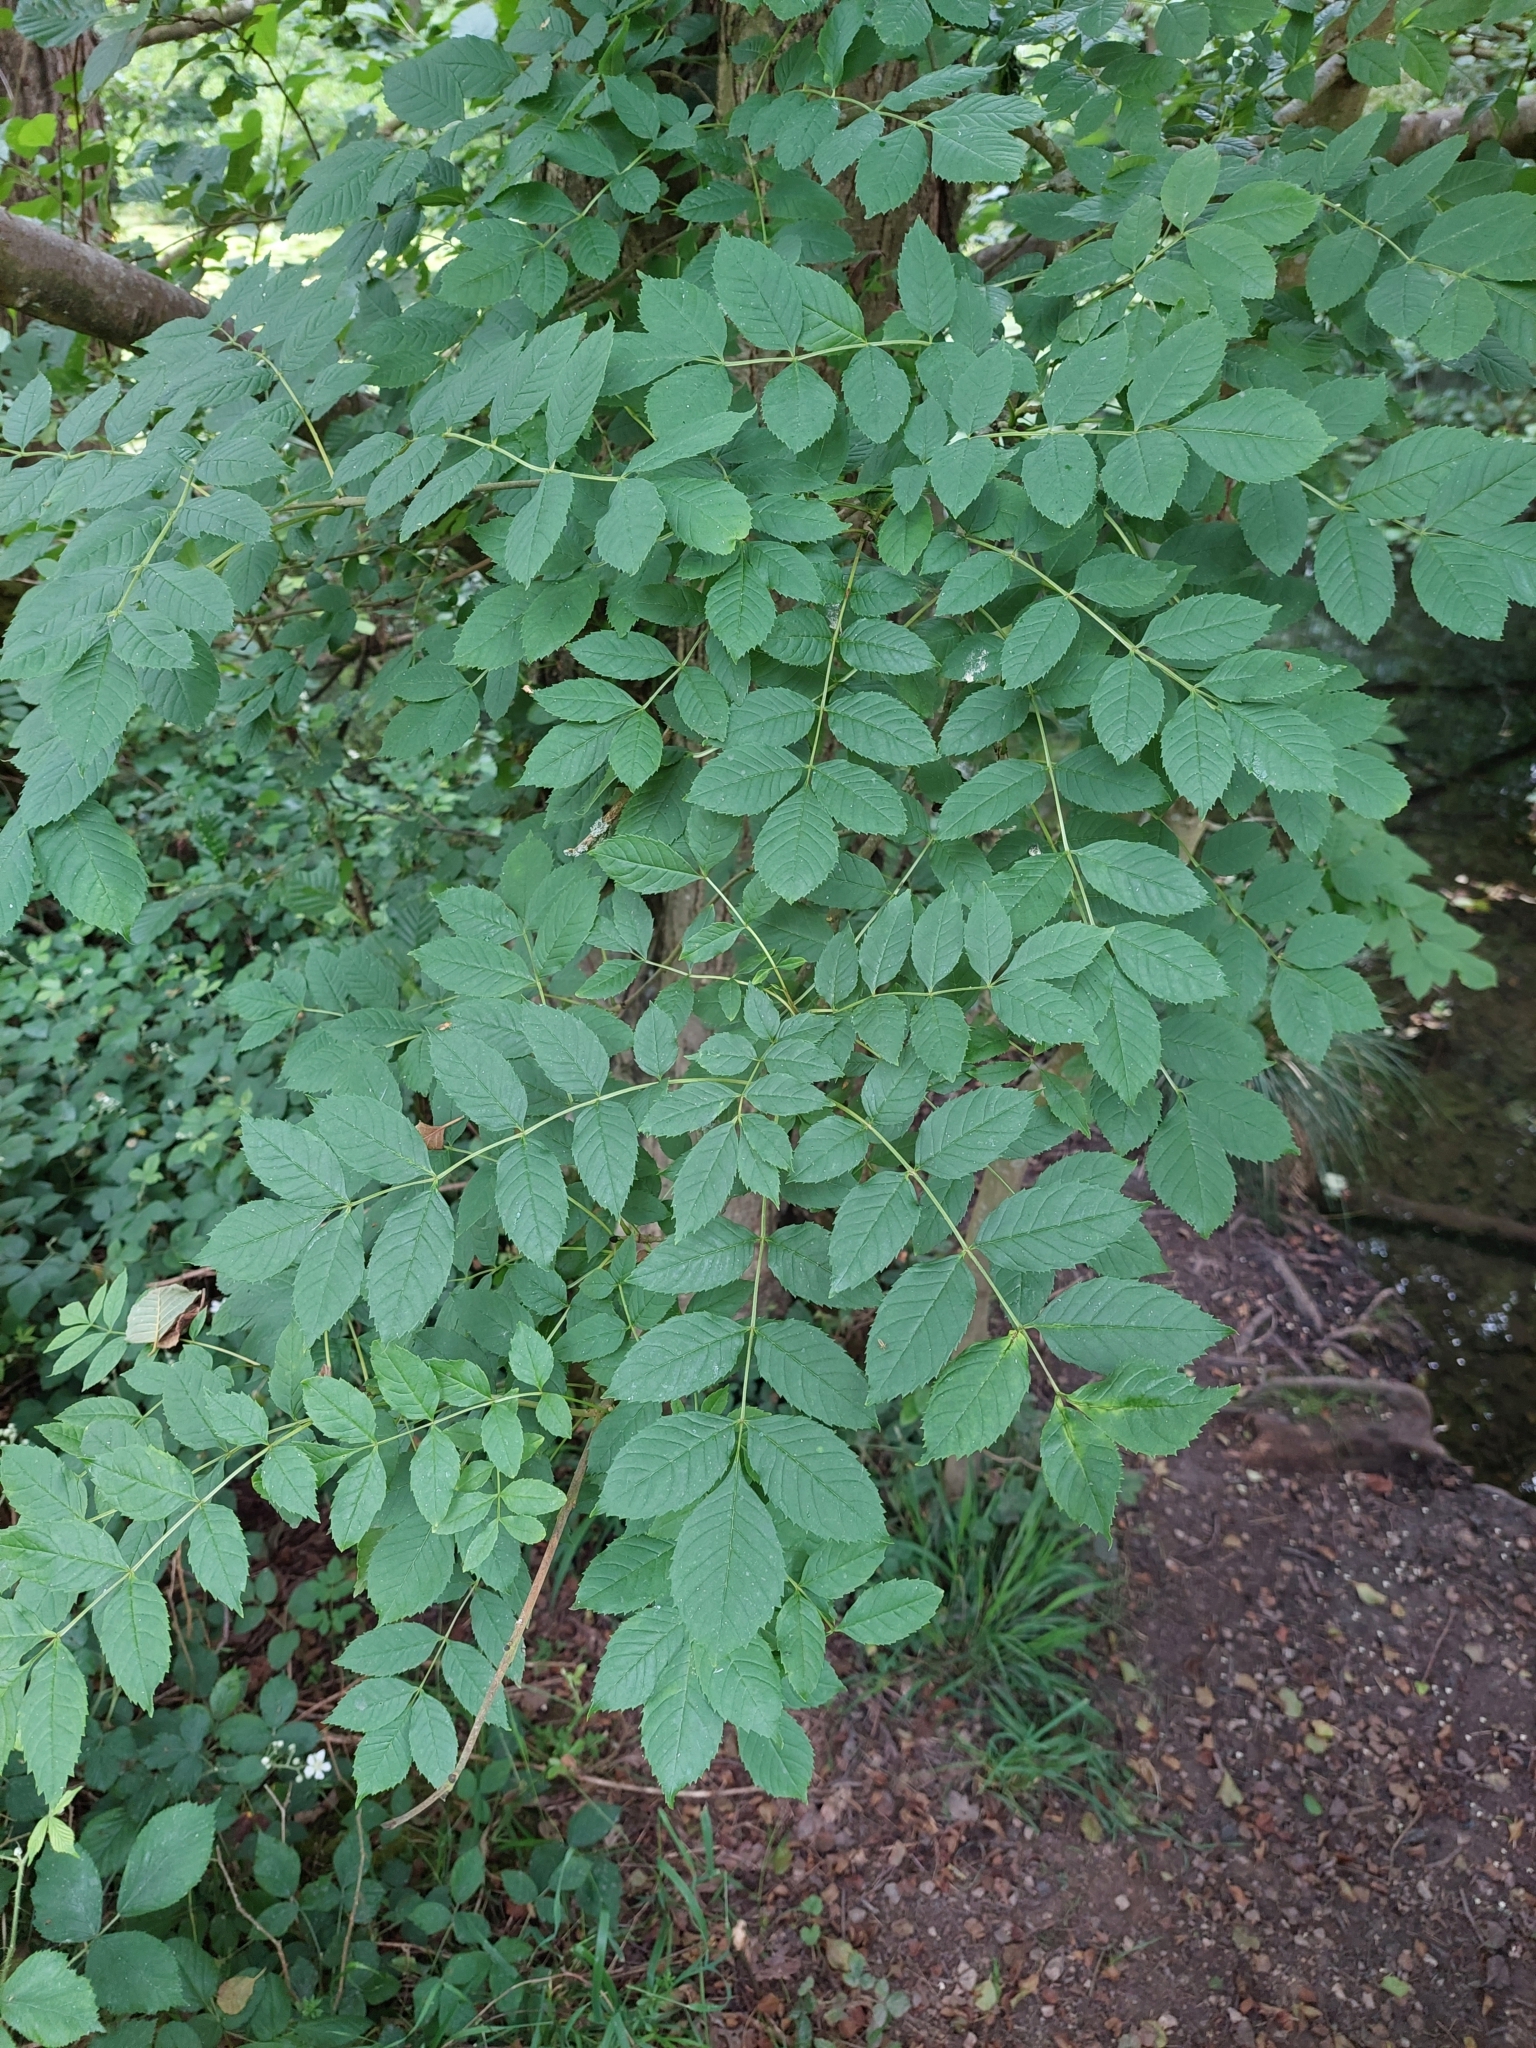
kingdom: Plantae
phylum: Tracheophyta
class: Magnoliopsida
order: Lamiales
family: Oleaceae
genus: Fraxinus
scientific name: Fraxinus excelsior
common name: European ash
